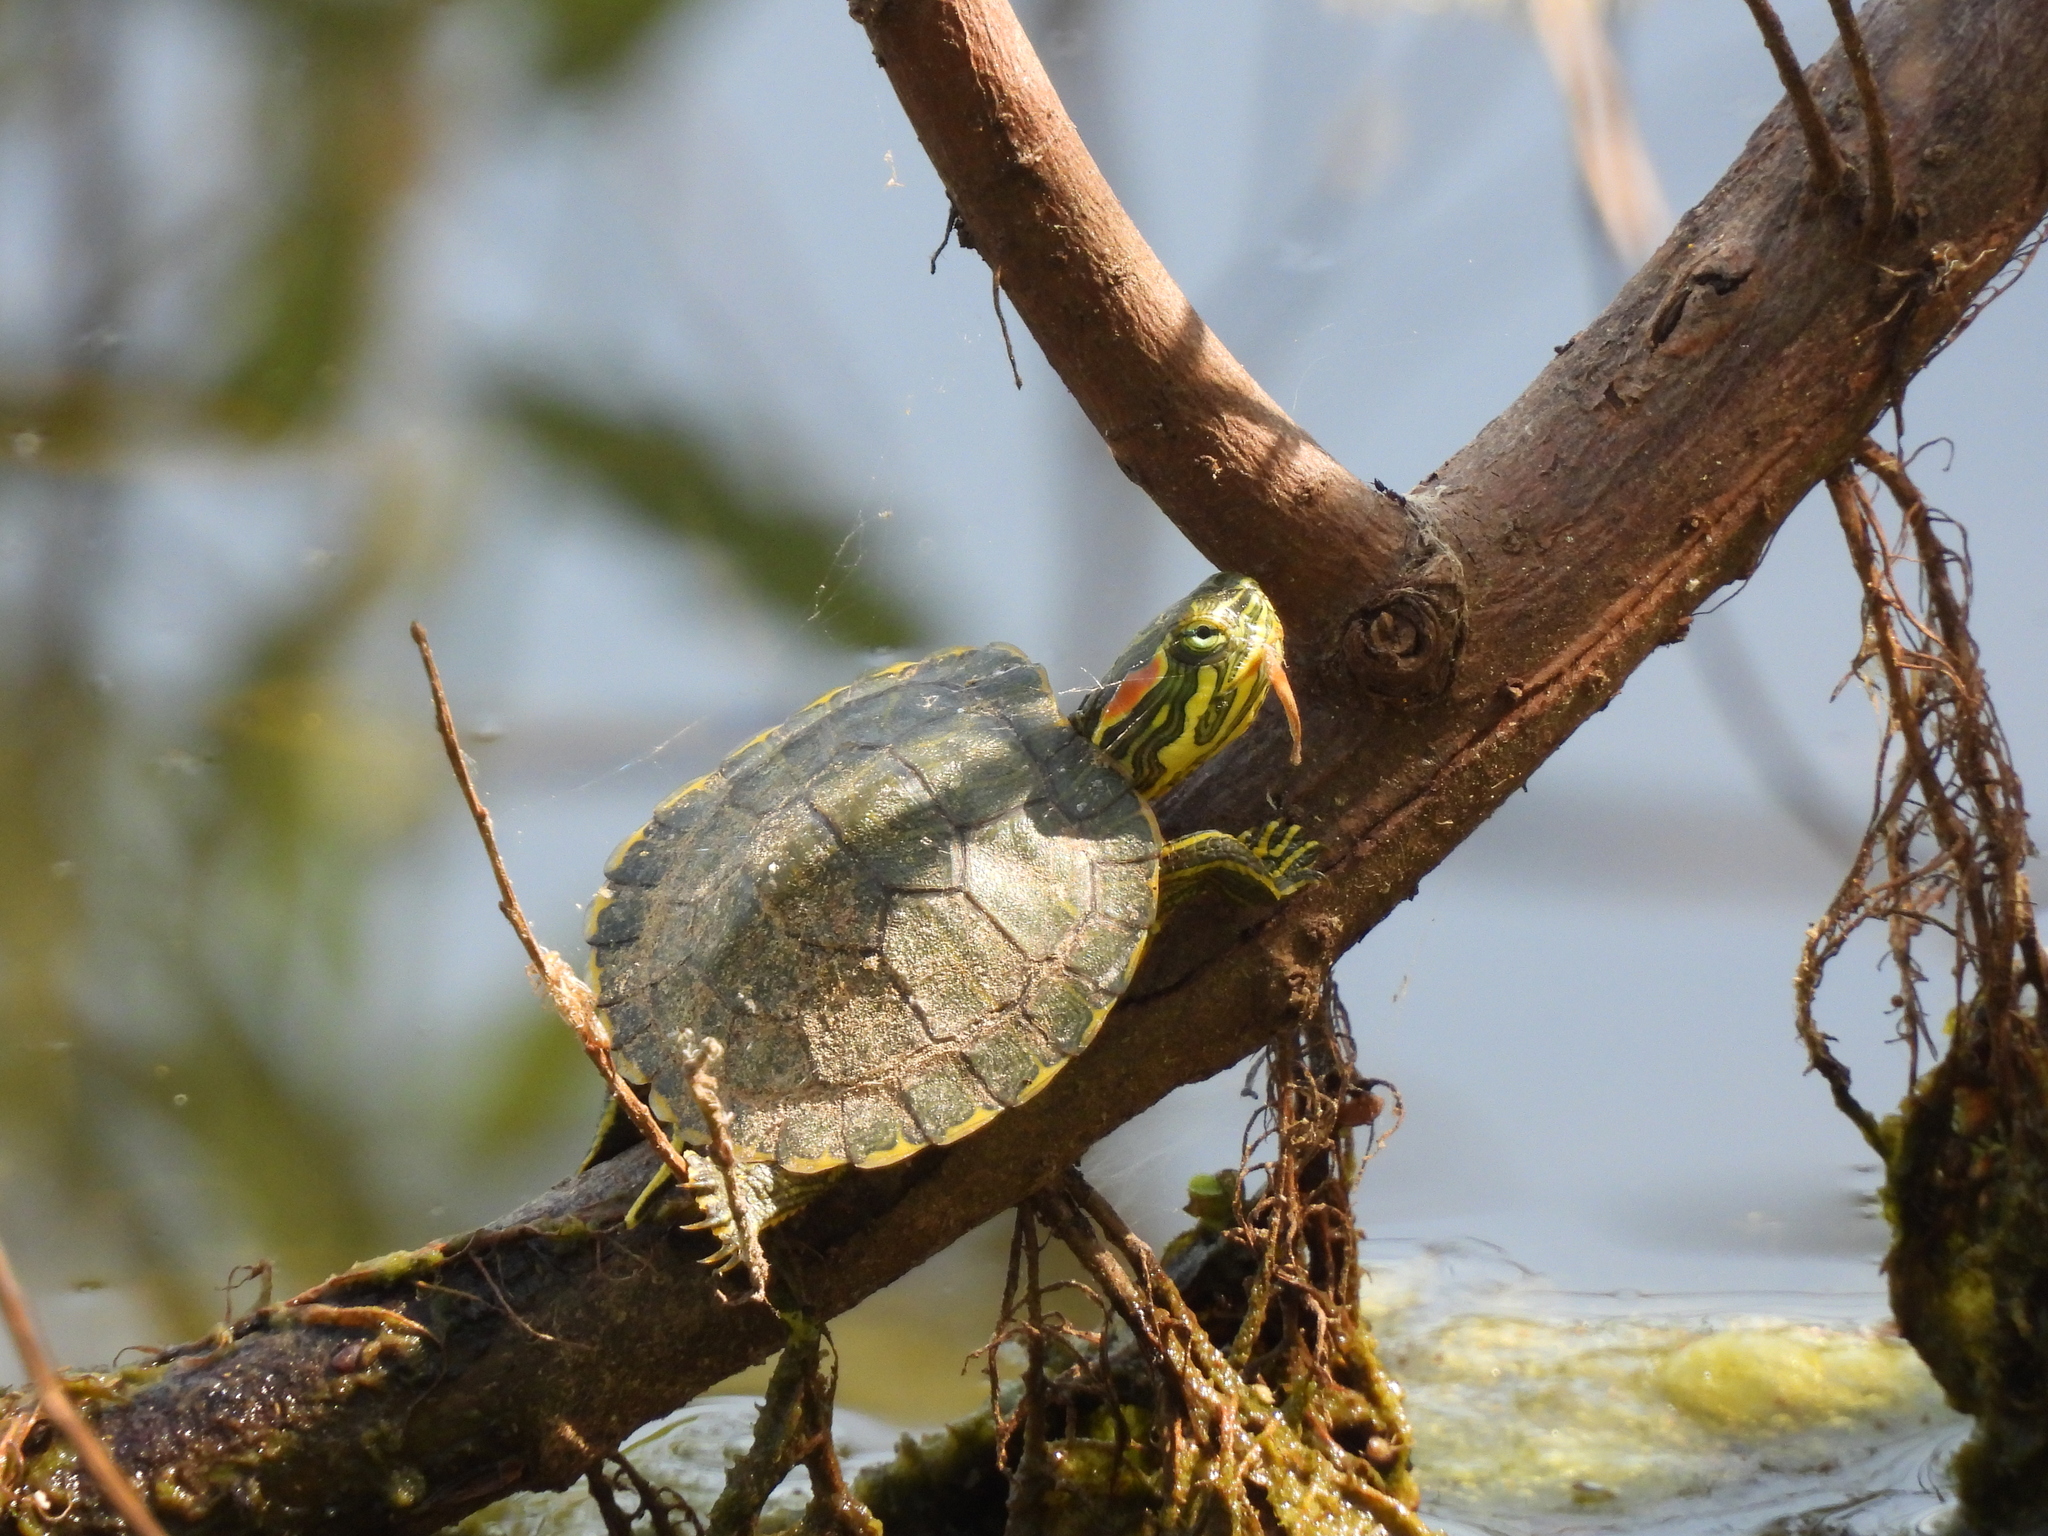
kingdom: Animalia
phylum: Chordata
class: Testudines
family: Emydidae
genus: Trachemys
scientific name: Trachemys scripta
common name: Slider
